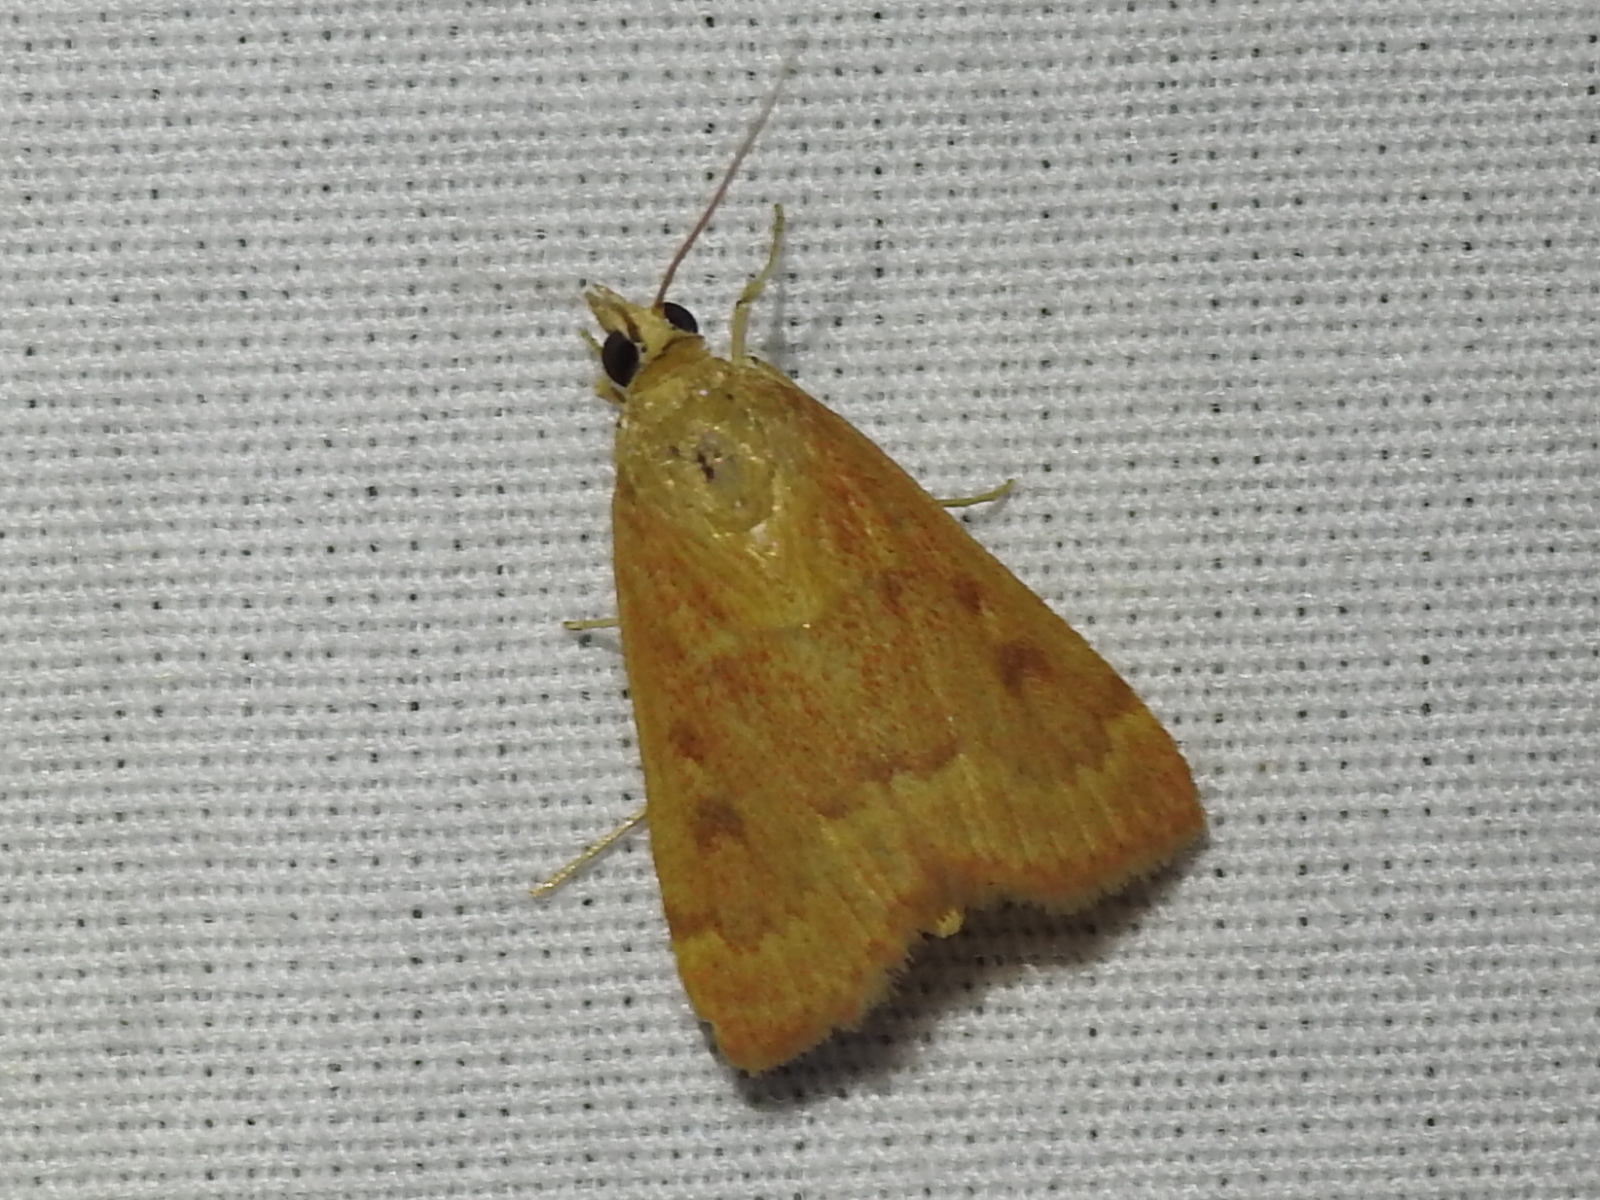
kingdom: Animalia
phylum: Arthropoda
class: Insecta
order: Lepidoptera
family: Crambidae
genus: Achyra
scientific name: Achyra rantalis
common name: Garden webworm
